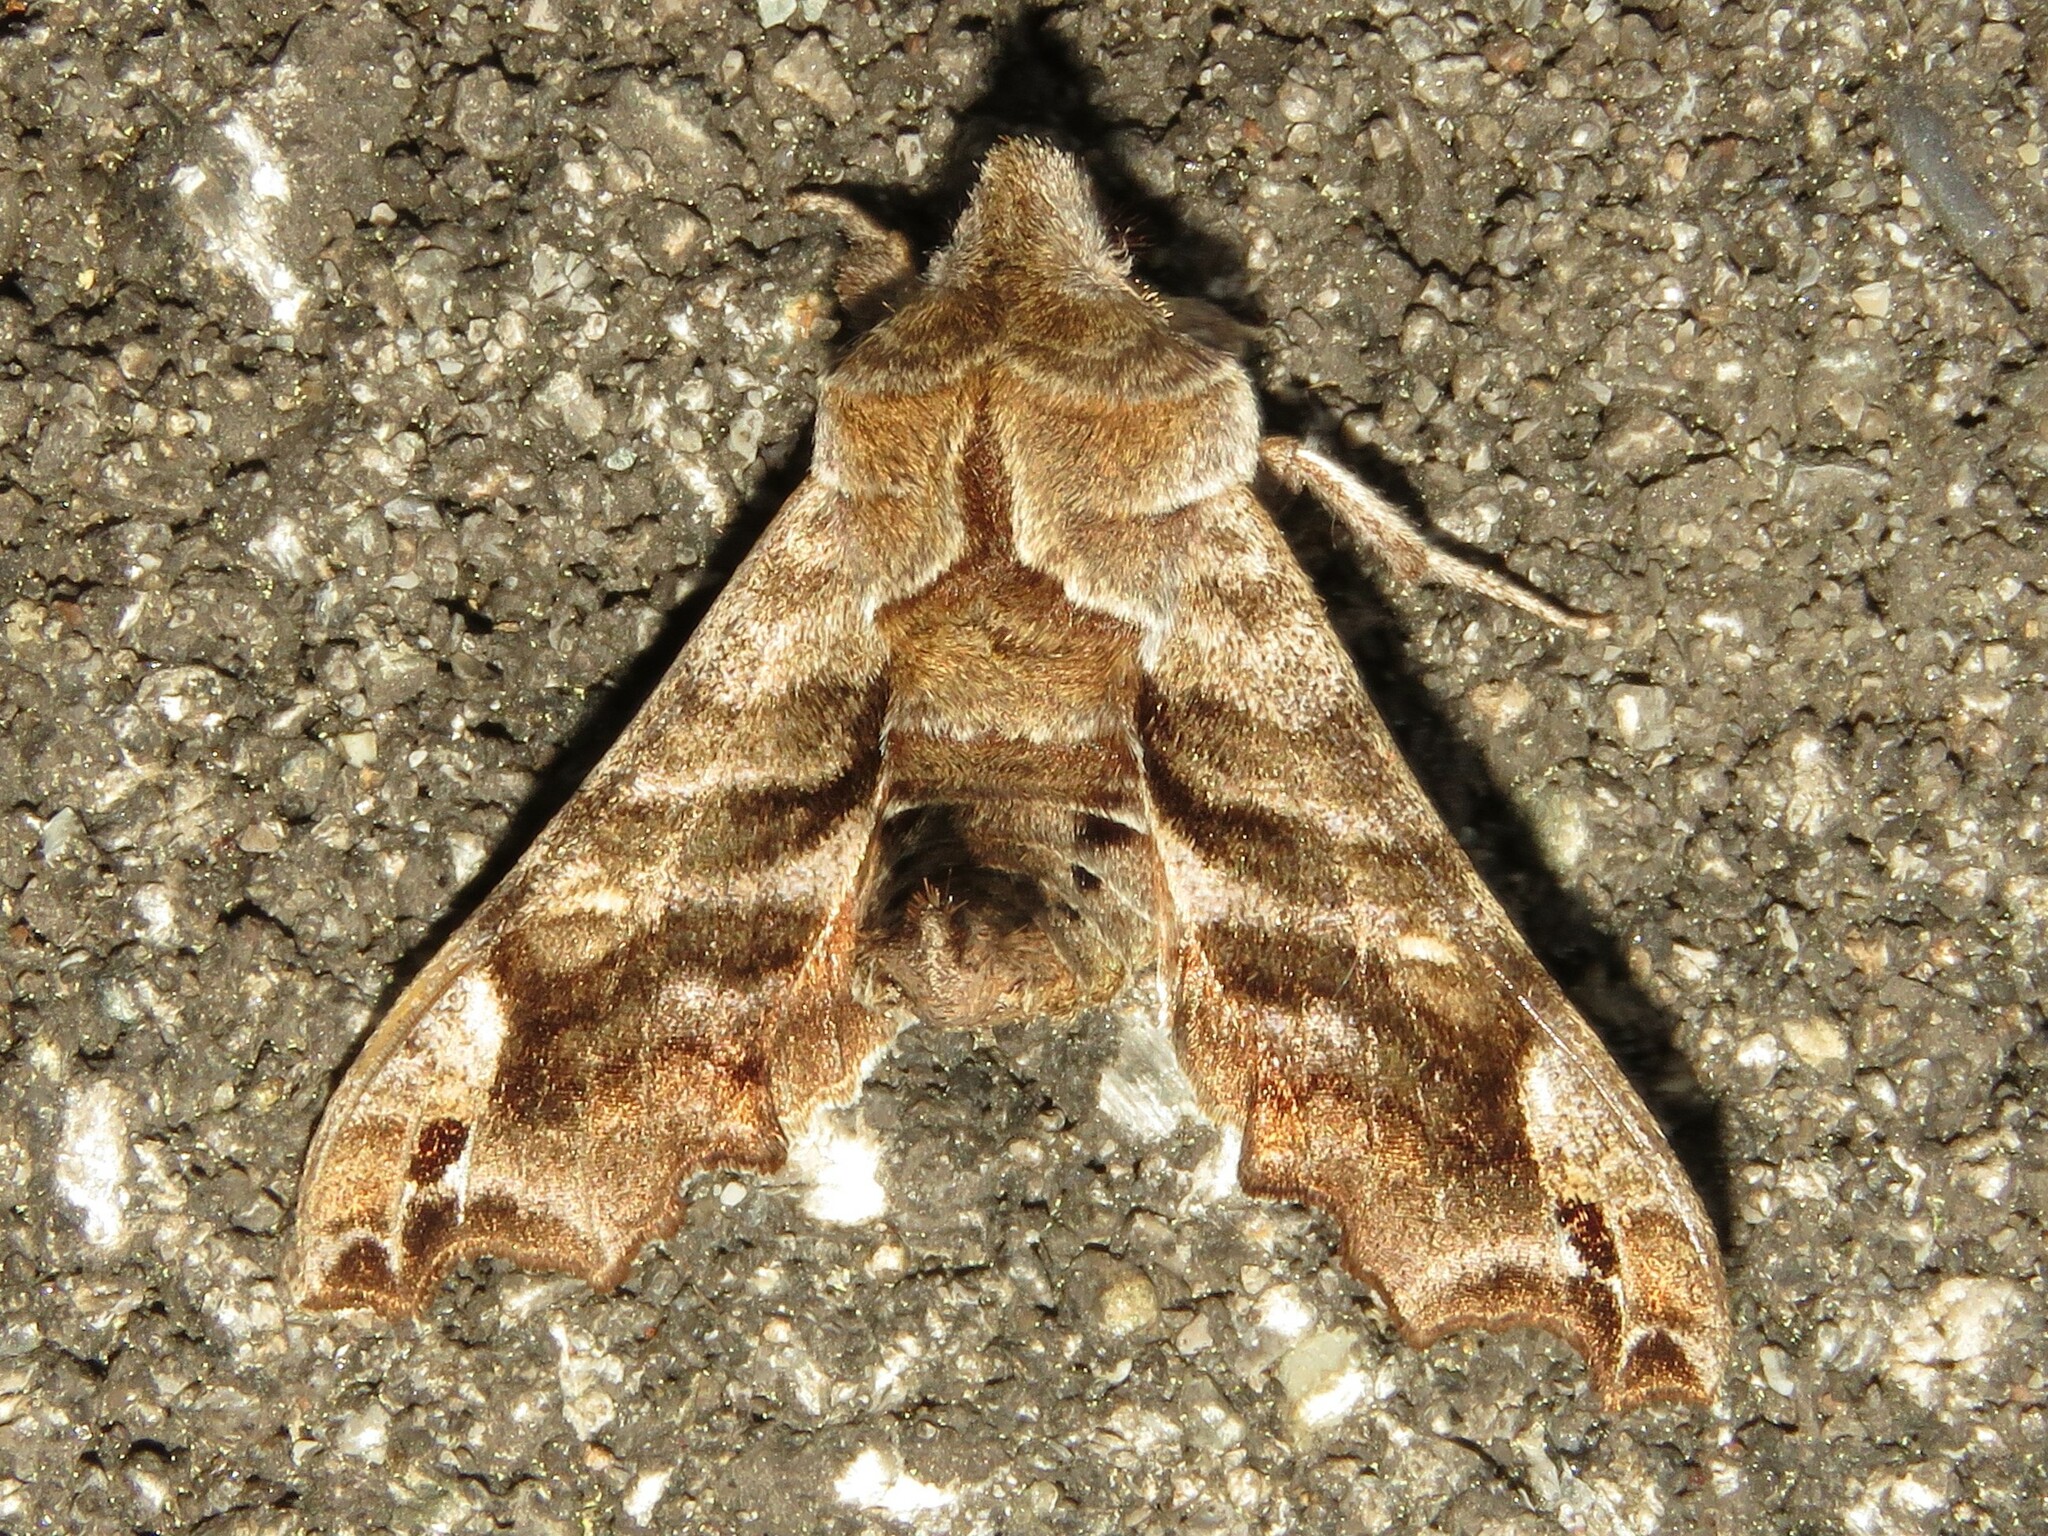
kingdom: Animalia
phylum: Arthropoda
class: Insecta
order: Lepidoptera
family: Sphingidae
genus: Deidamia
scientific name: Deidamia inscriptum
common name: Lettered sphinx
